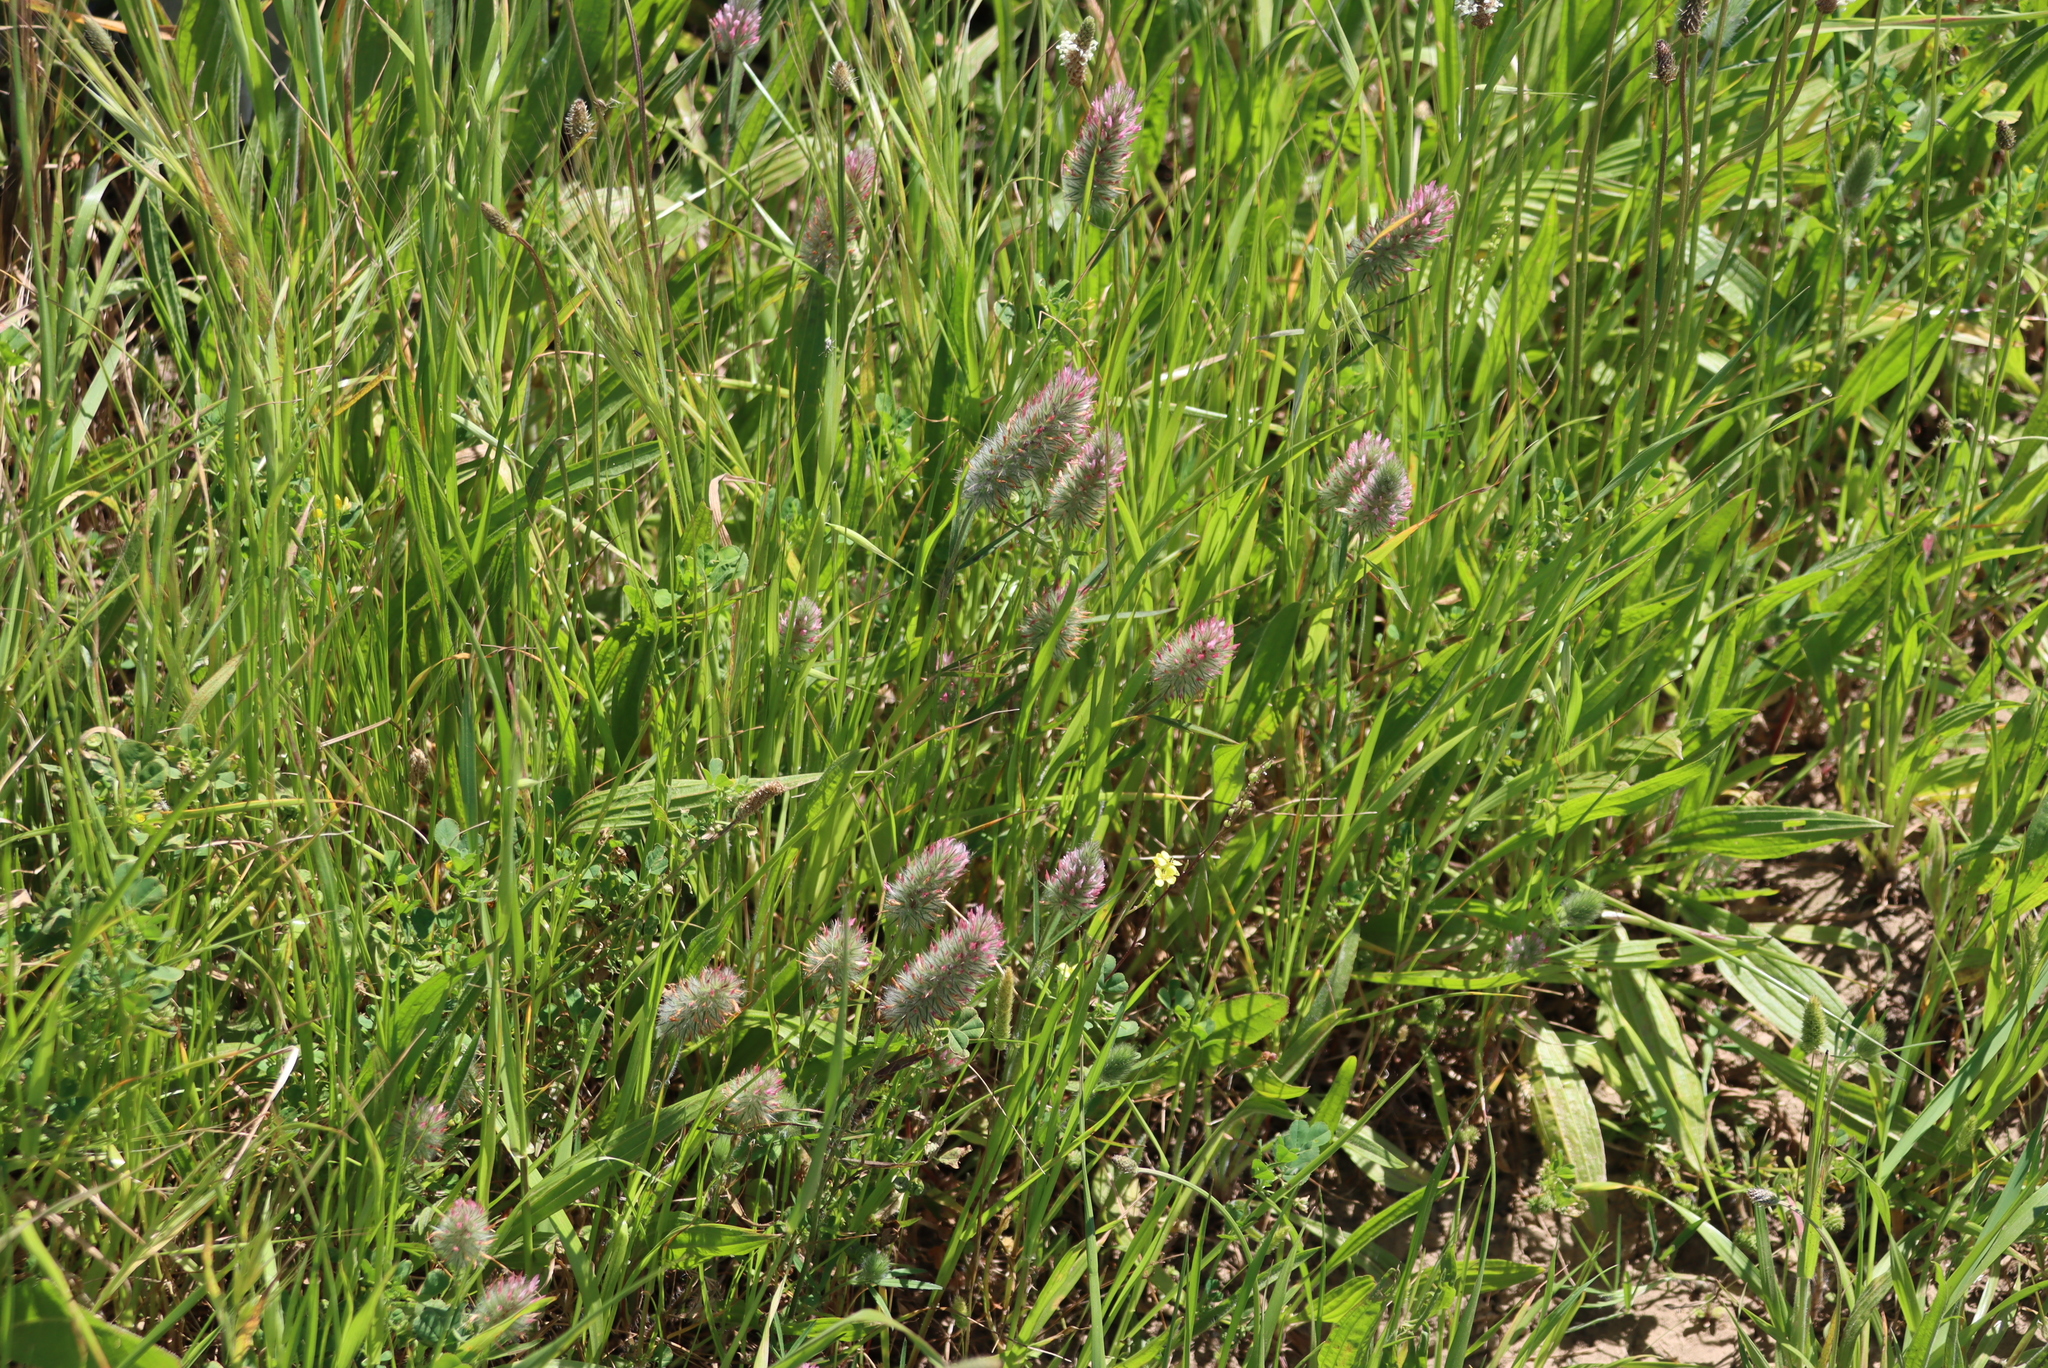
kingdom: Plantae
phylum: Tracheophyta
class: Magnoliopsida
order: Fabales
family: Fabaceae
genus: Trifolium
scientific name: Trifolium angustifolium
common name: Narrow clover
